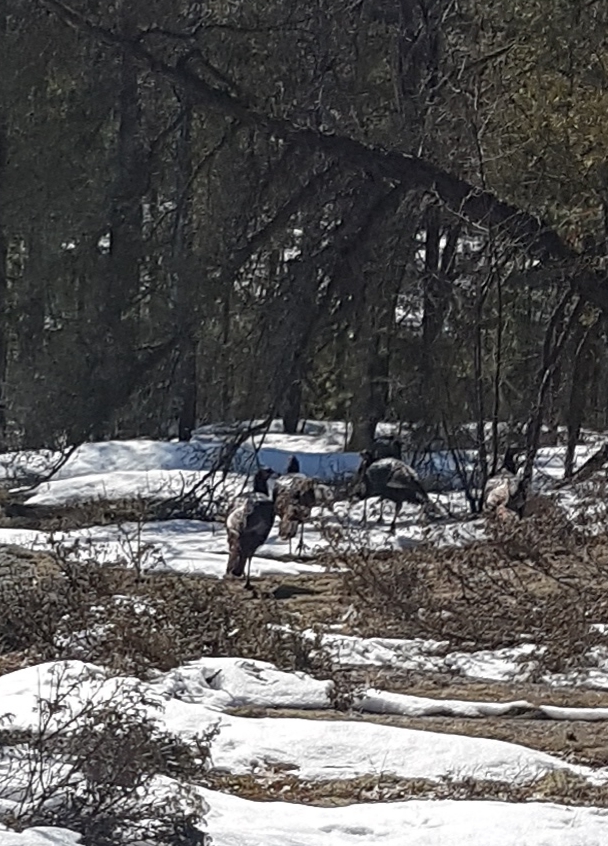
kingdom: Animalia
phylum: Chordata
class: Aves
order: Galliformes
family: Phasianidae
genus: Meleagris
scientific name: Meleagris gallopavo
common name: Wild turkey
